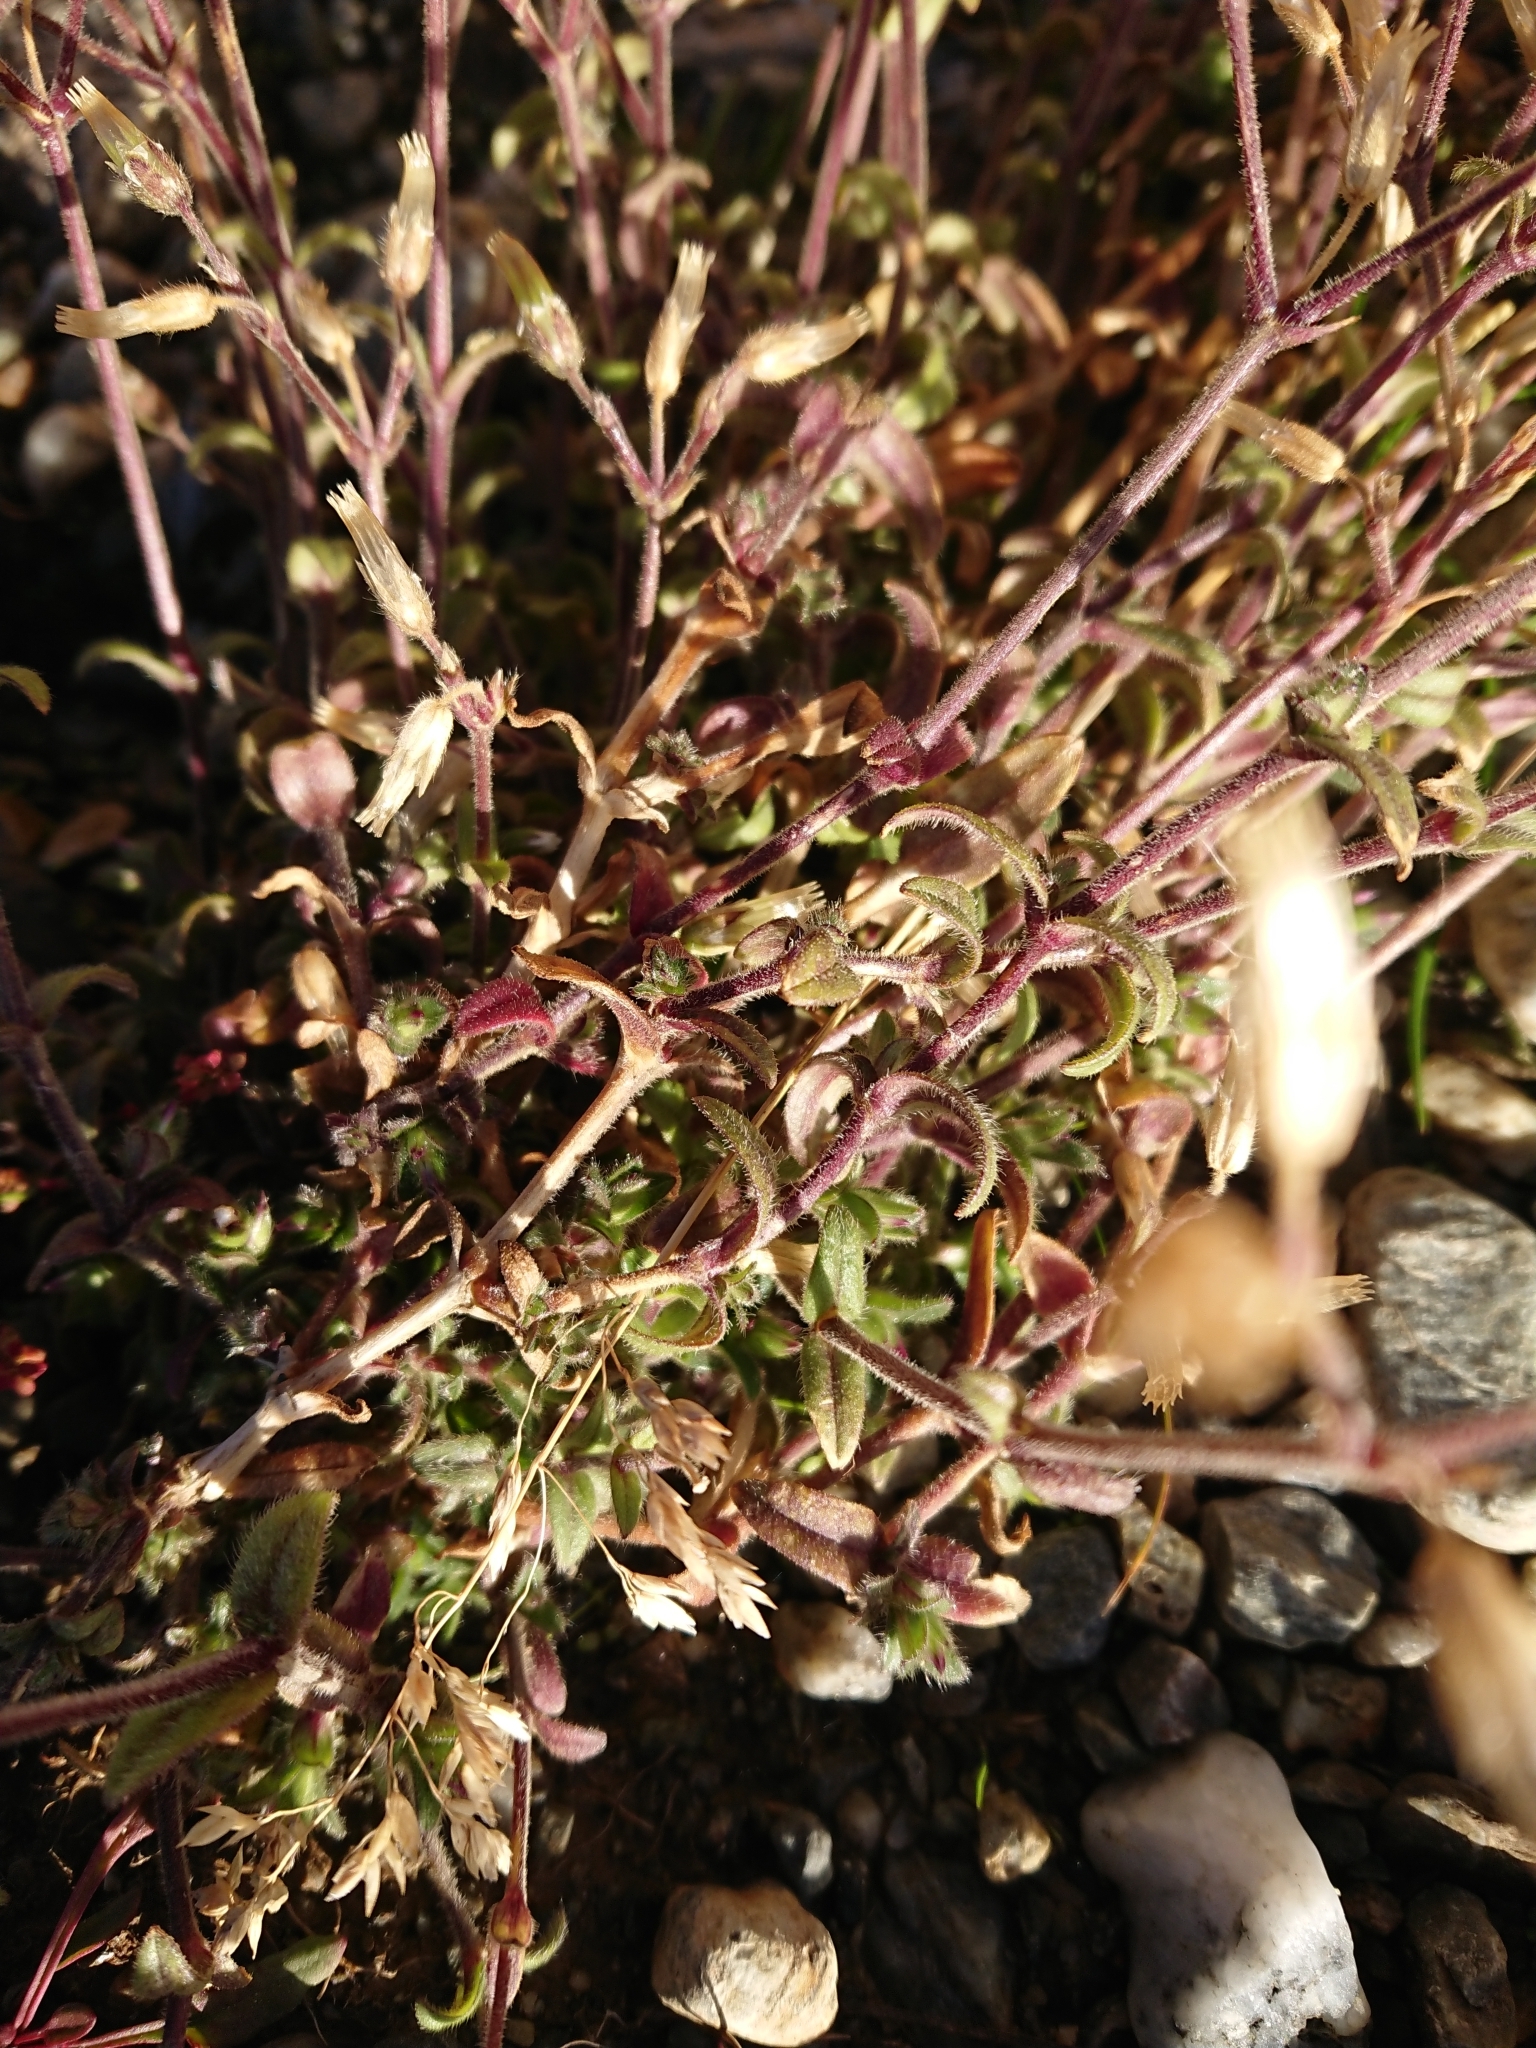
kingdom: Plantae
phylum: Tracheophyta
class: Magnoliopsida
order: Caryophyllales
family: Caryophyllaceae
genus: Cerastium
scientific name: Cerastium arvense
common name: Field mouse-ear
